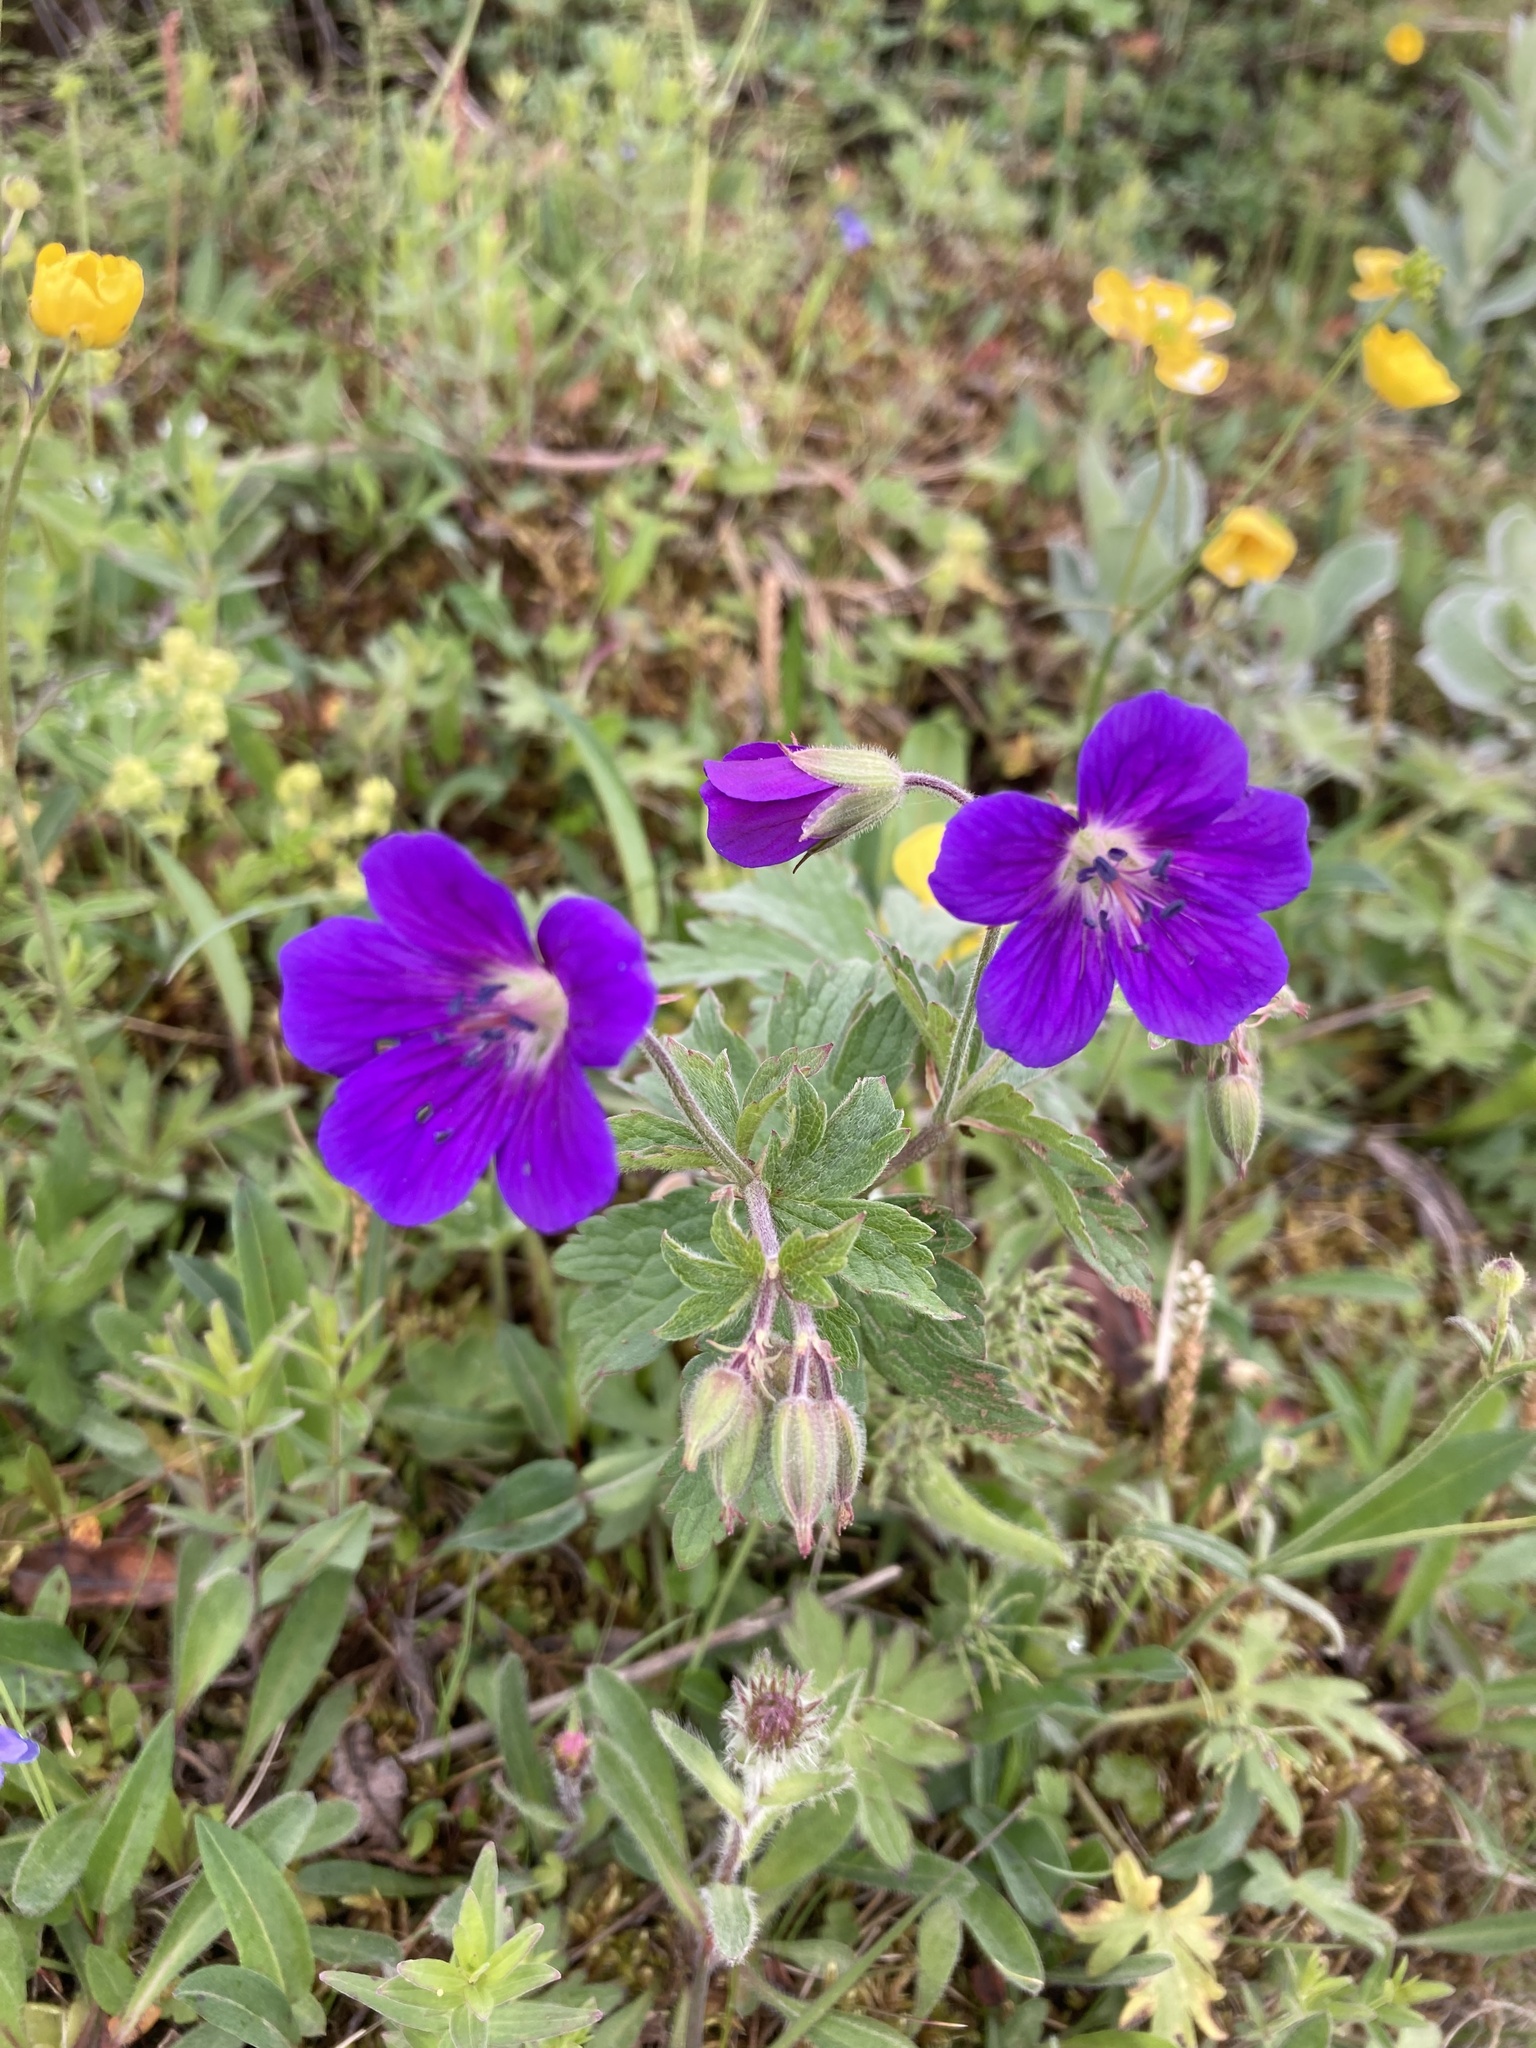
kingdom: Plantae
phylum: Tracheophyta
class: Magnoliopsida
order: Geraniales
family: Geraniaceae
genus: Geranium
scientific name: Geranium sylvaticum
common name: Wood crane's-bill
